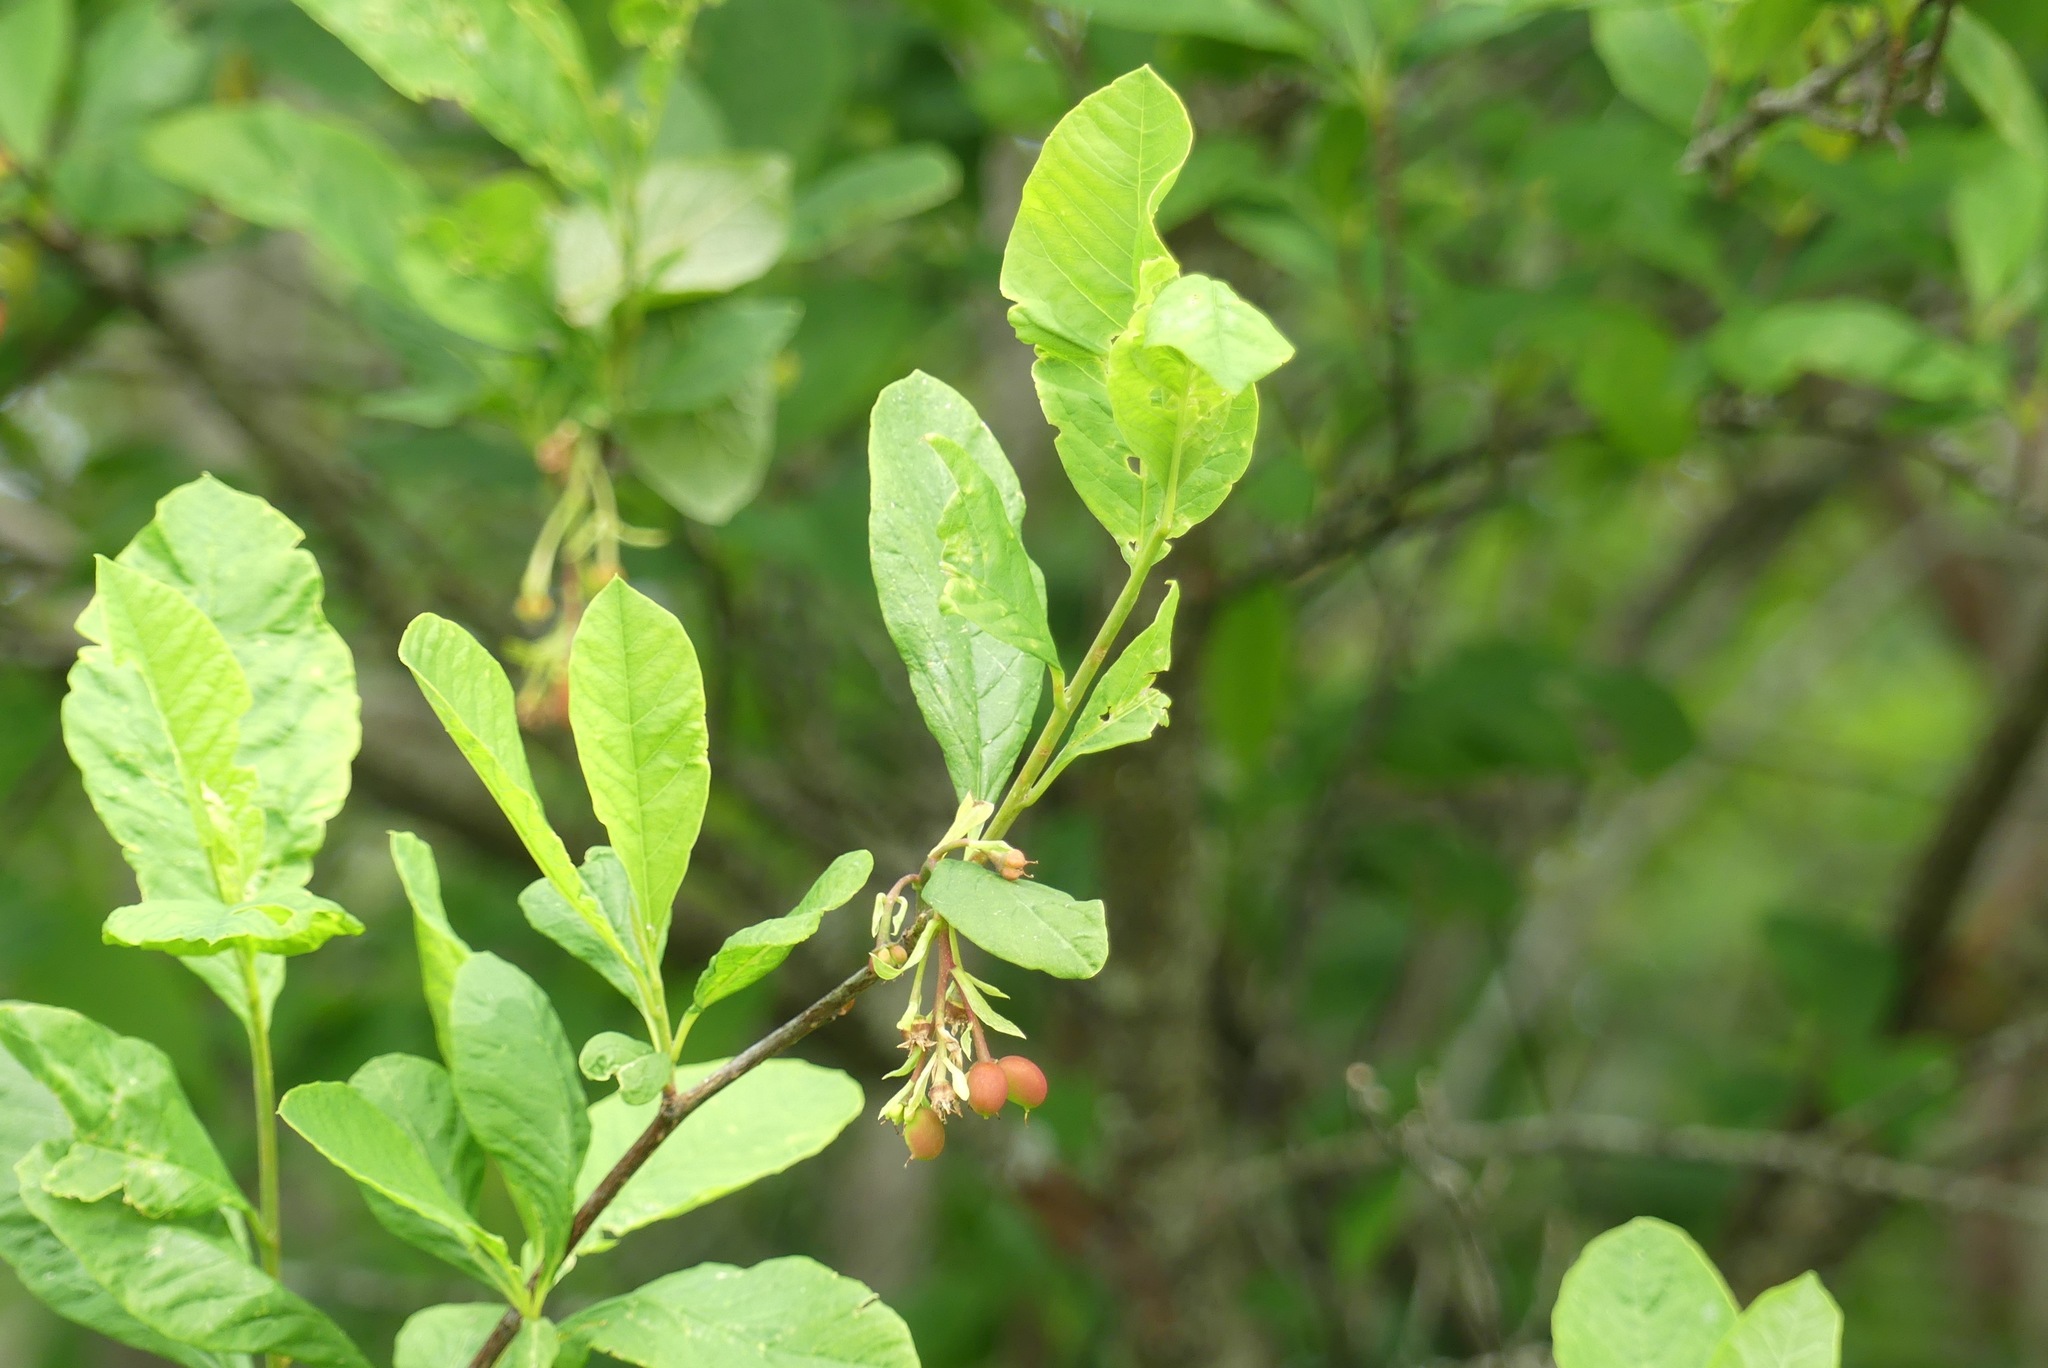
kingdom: Plantae
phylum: Tracheophyta
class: Magnoliopsida
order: Rosales
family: Rosaceae
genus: Oemleria
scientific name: Oemleria cerasiformis
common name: Osoberry
